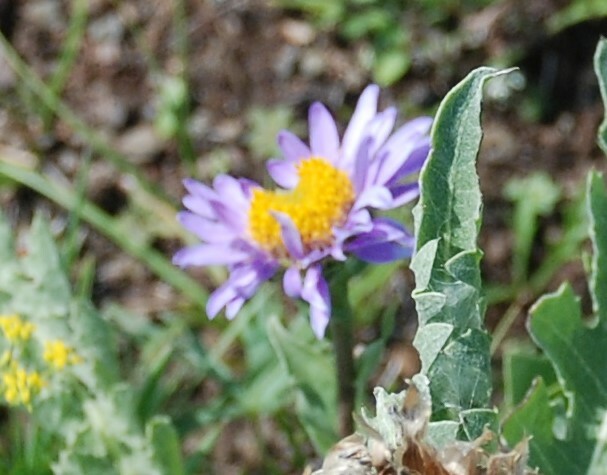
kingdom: Plantae
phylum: Tracheophyta
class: Magnoliopsida
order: Asterales
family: Asteraceae
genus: Aster
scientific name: Aster alpinus
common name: Alpine aster
